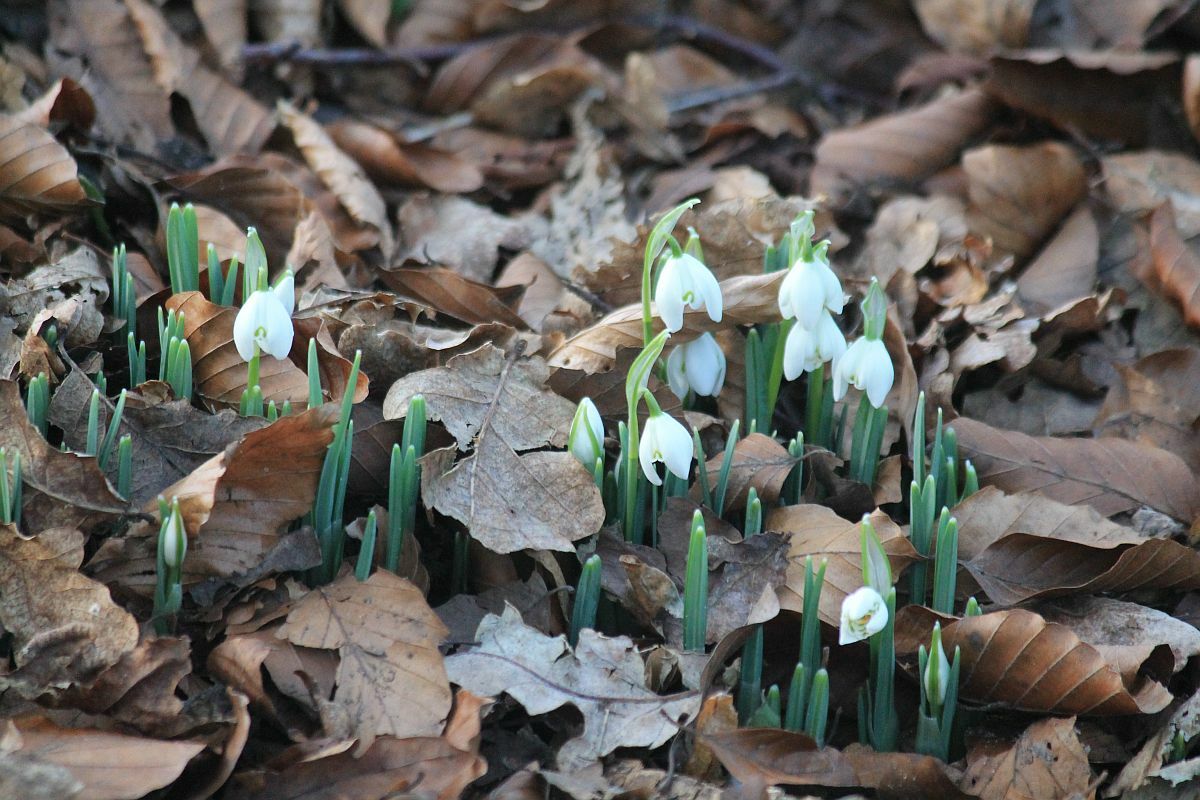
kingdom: Plantae
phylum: Tracheophyta
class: Liliopsida
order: Asparagales
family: Amaryllidaceae
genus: Galanthus
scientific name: Galanthus nivalis
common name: Snowdrop
